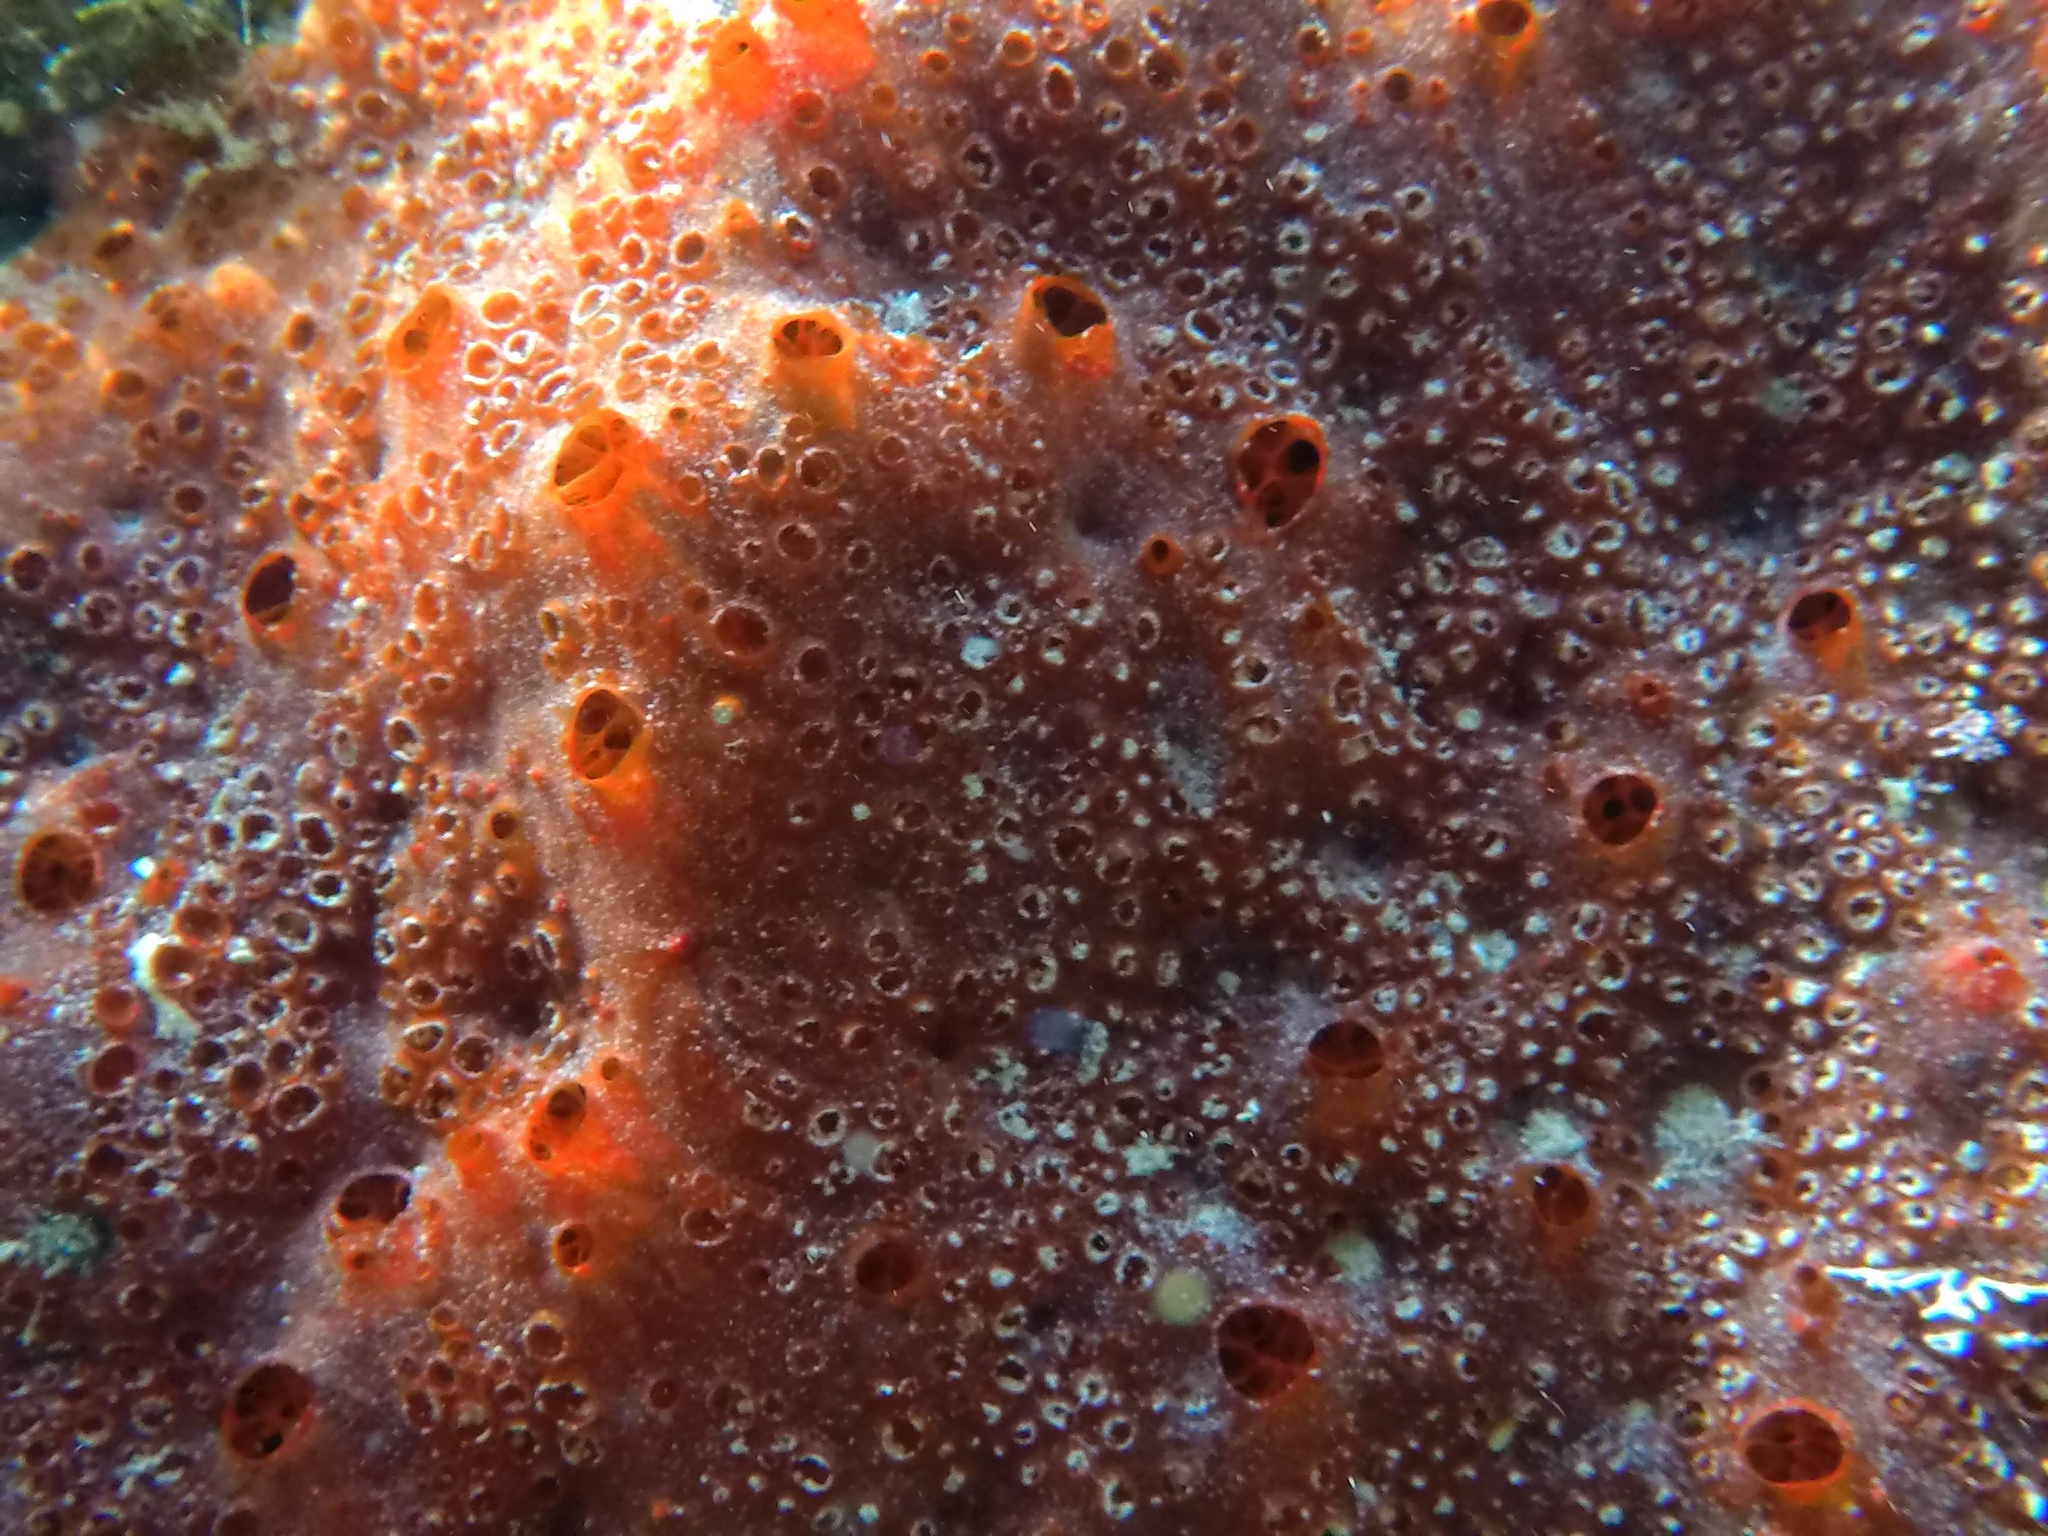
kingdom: Animalia
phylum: Porifera
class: Demospongiae
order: Poecilosclerida
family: Hymedesmiidae
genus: Phorbas
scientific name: Phorbas fictitius
